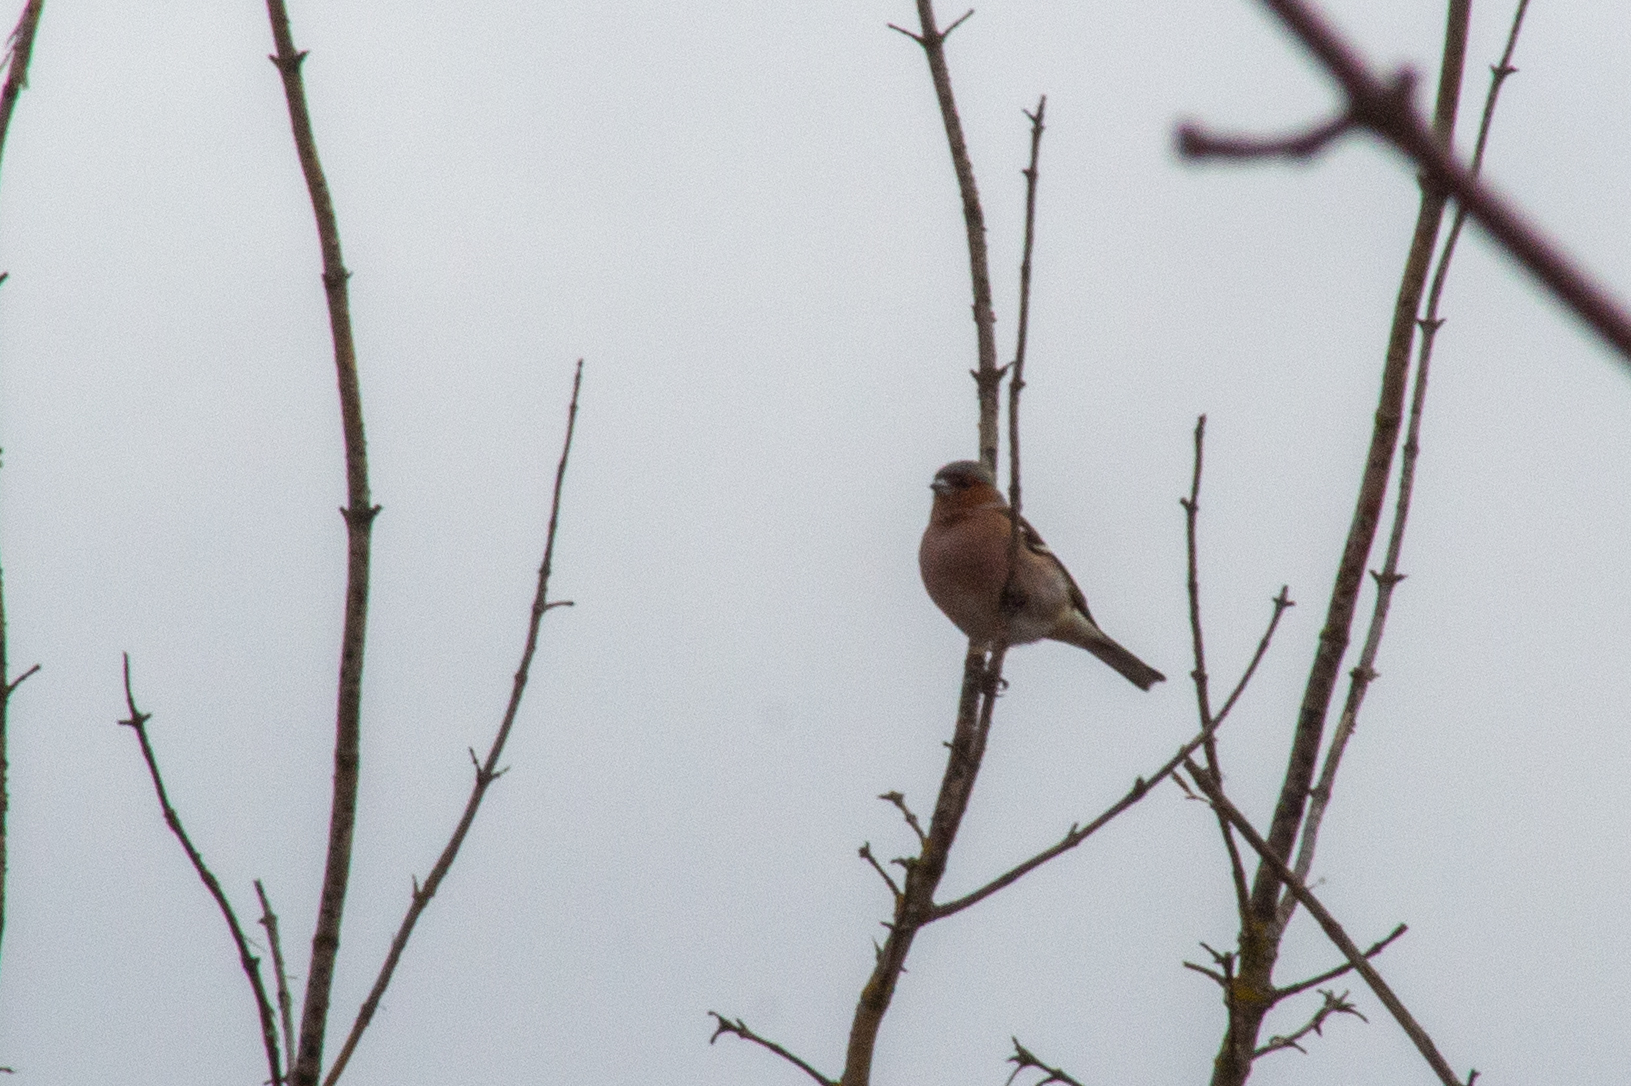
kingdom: Animalia
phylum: Chordata
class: Aves
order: Passeriformes
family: Fringillidae
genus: Fringilla
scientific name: Fringilla coelebs
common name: Common chaffinch
